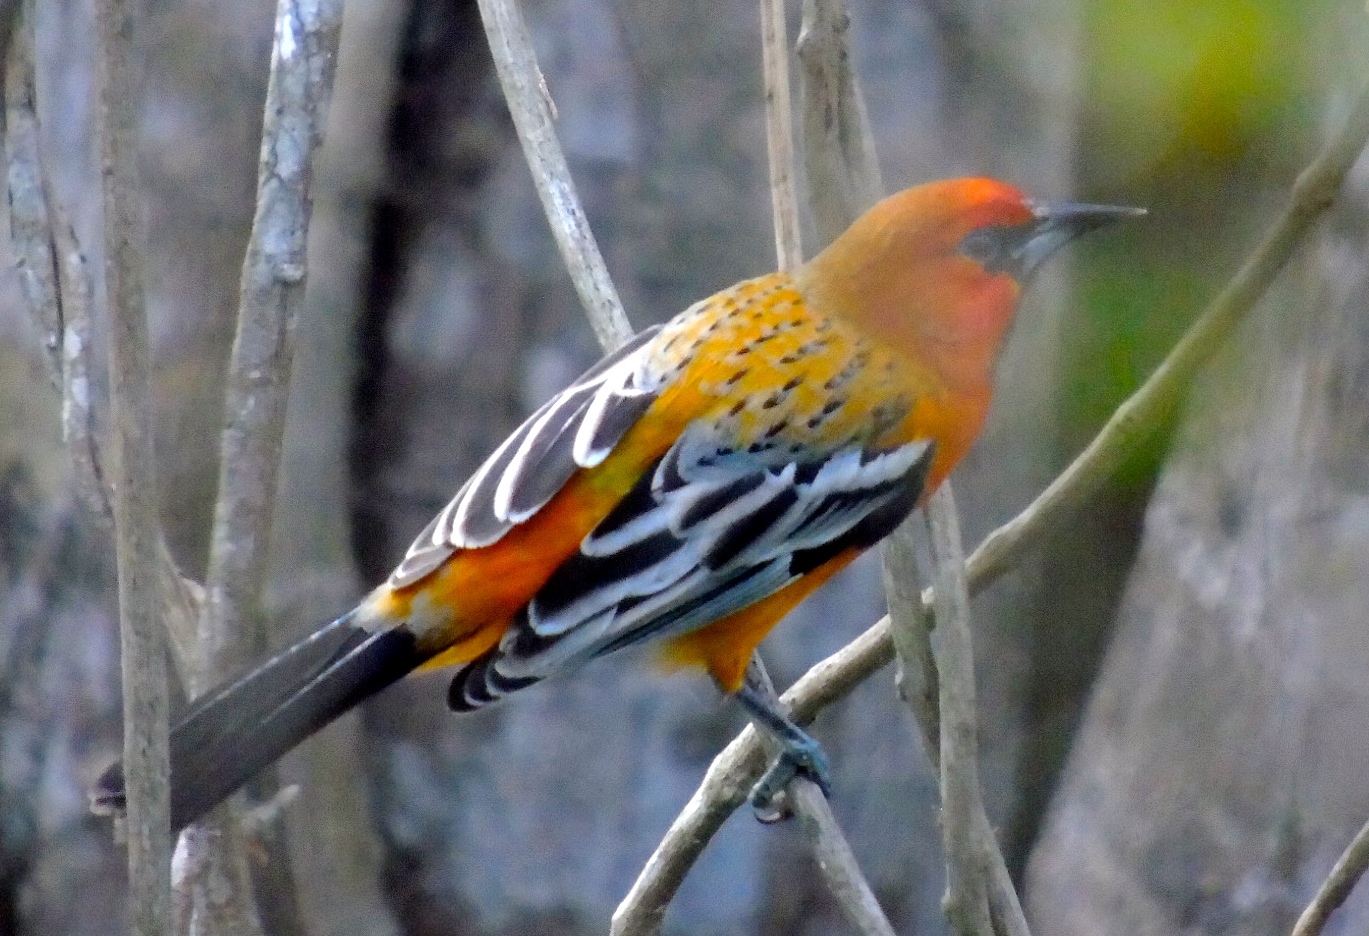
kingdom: Animalia
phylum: Chordata
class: Aves
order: Passeriformes
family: Icteridae
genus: Icterus
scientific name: Icterus pustulatus
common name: Streak-backed oriole
